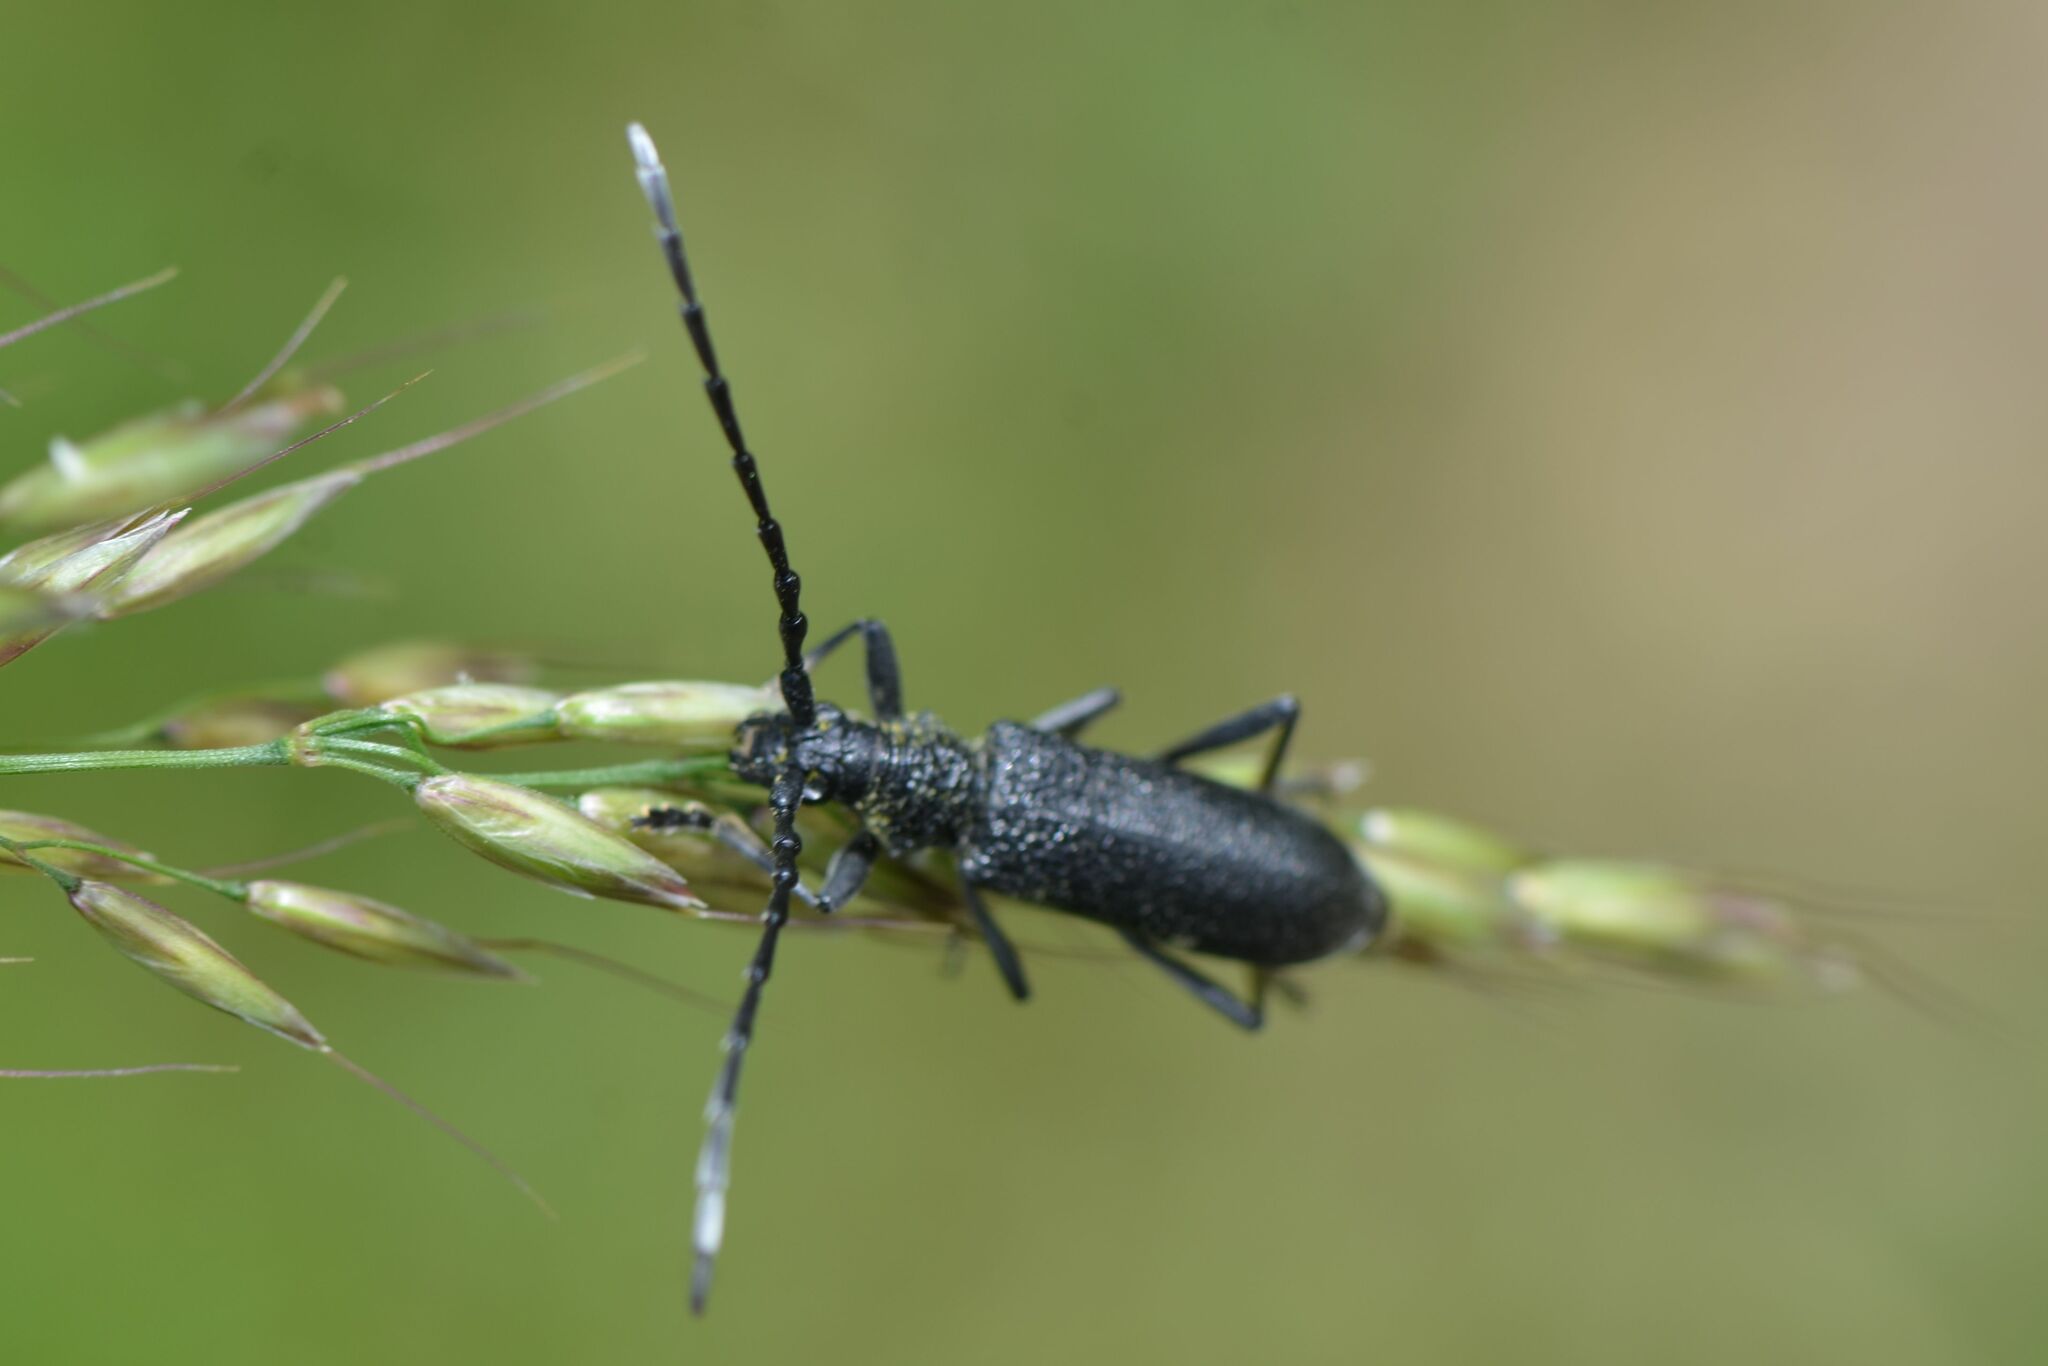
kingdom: Animalia
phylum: Arthropoda
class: Insecta
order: Coleoptera
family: Cerambycidae
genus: Cerambyx
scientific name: Cerambyx scopolii
